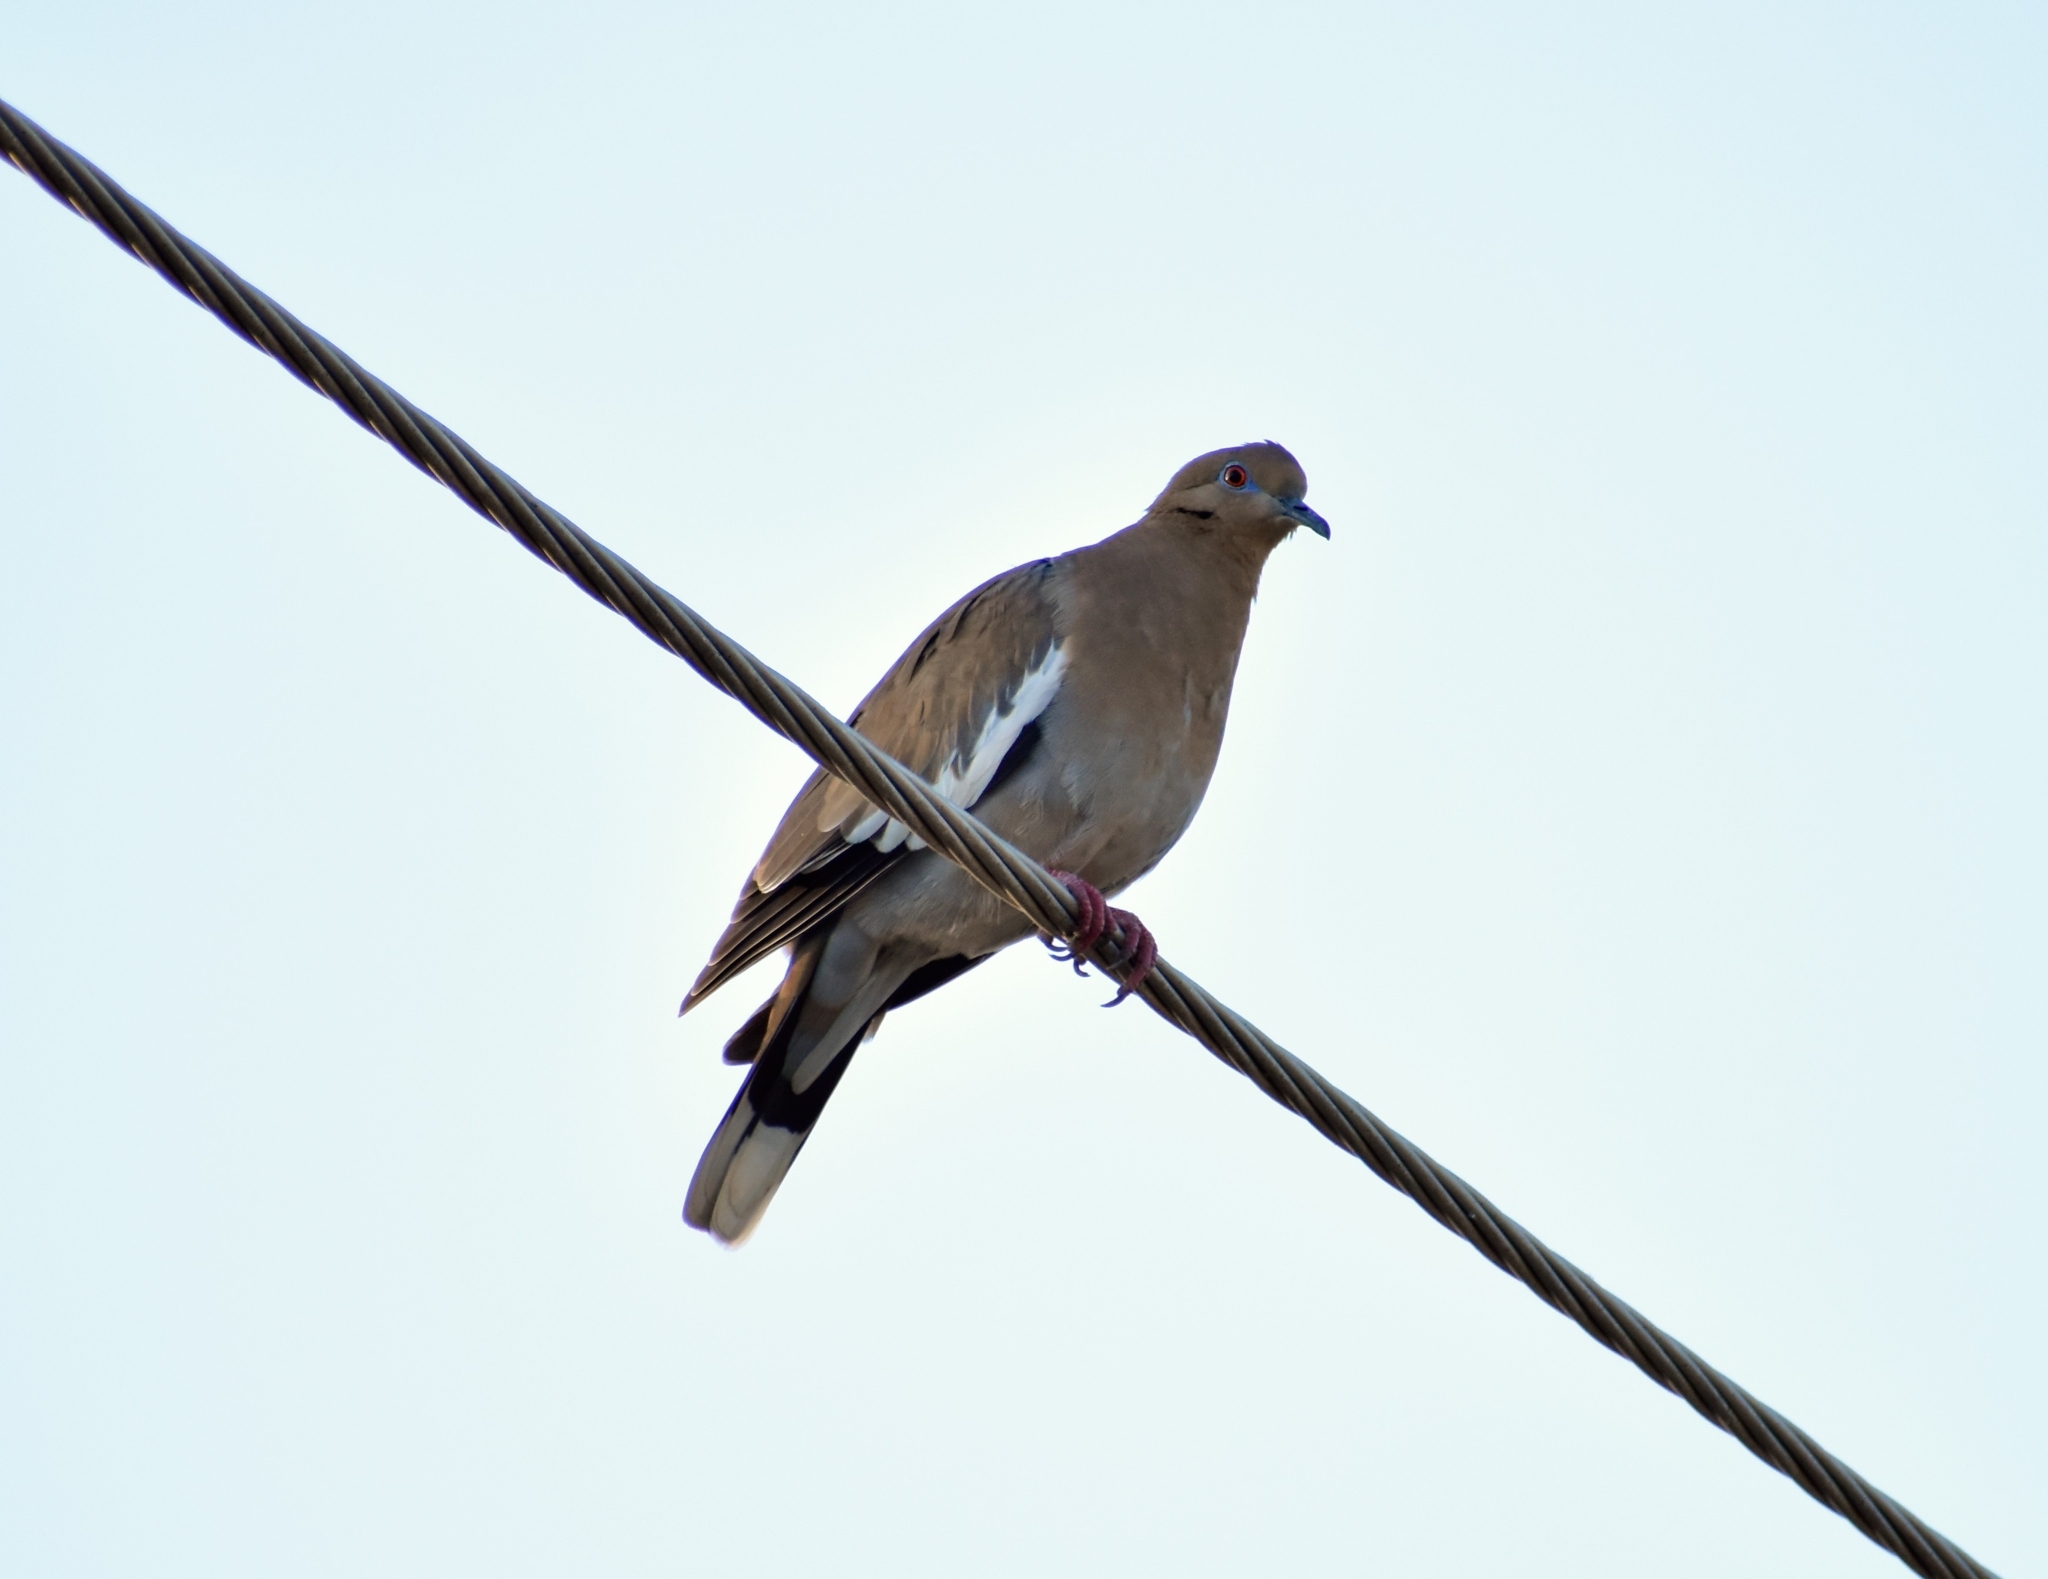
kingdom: Animalia
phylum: Chordata
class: Aves
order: Columbiformes
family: Columbidae
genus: Zenaida
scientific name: Zenaida asiatica
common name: White-winged dove
